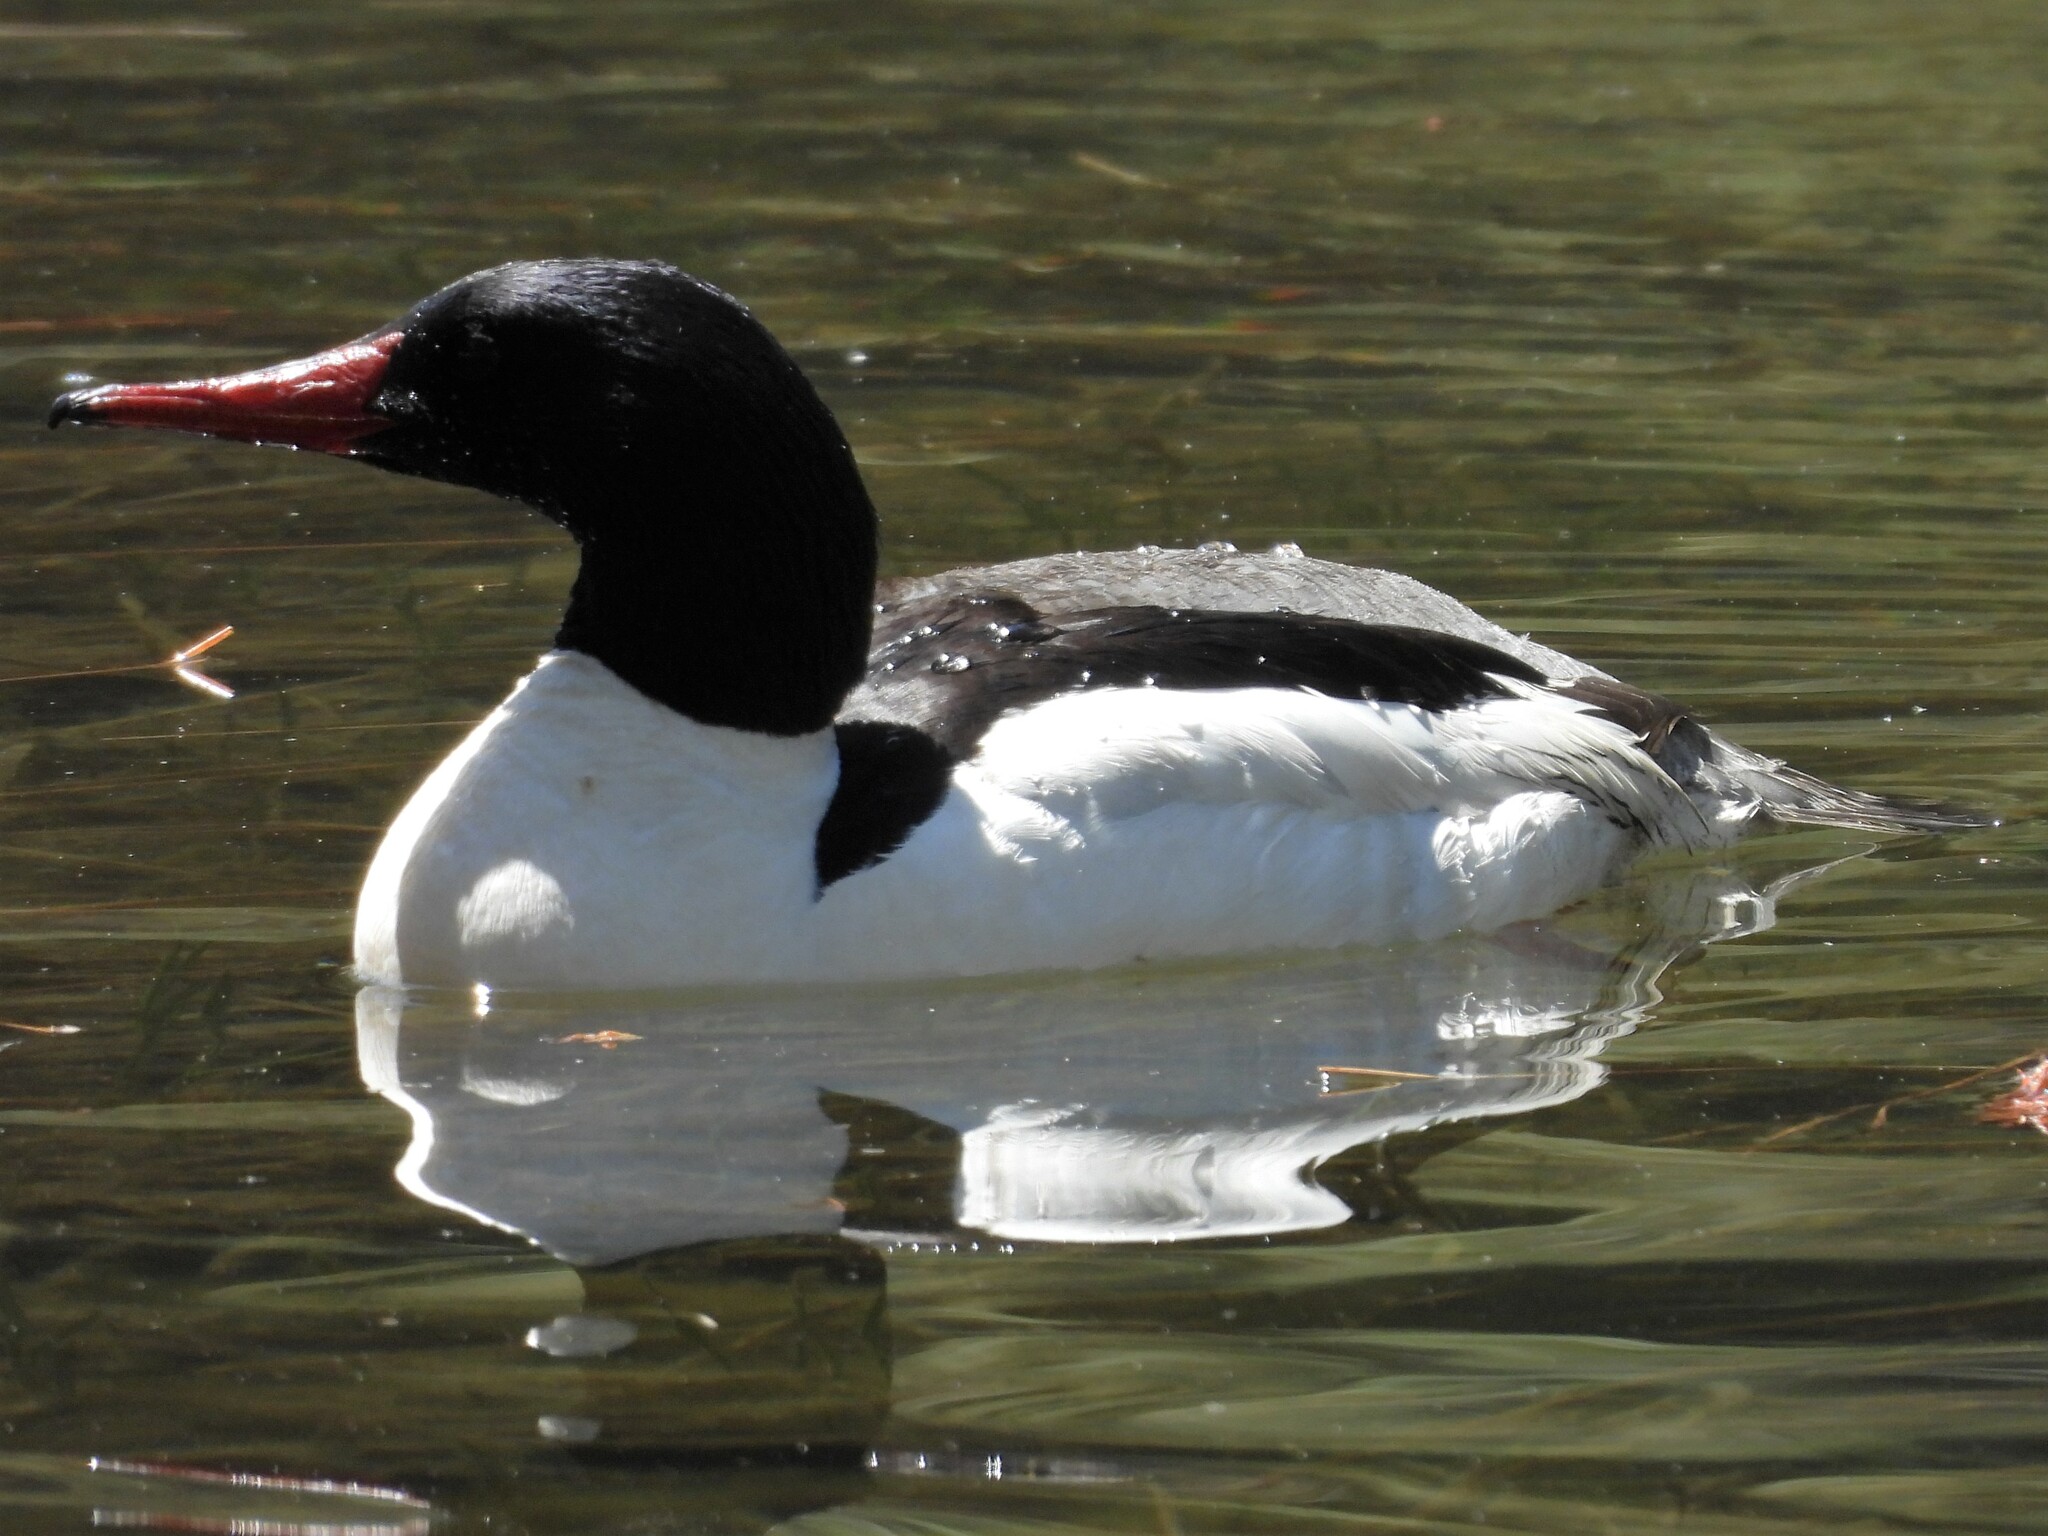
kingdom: Animalia
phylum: Chordata
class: Aves
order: Anseriformes
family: Anatidae
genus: Mergus
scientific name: Mergus merganser
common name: Common merganser
